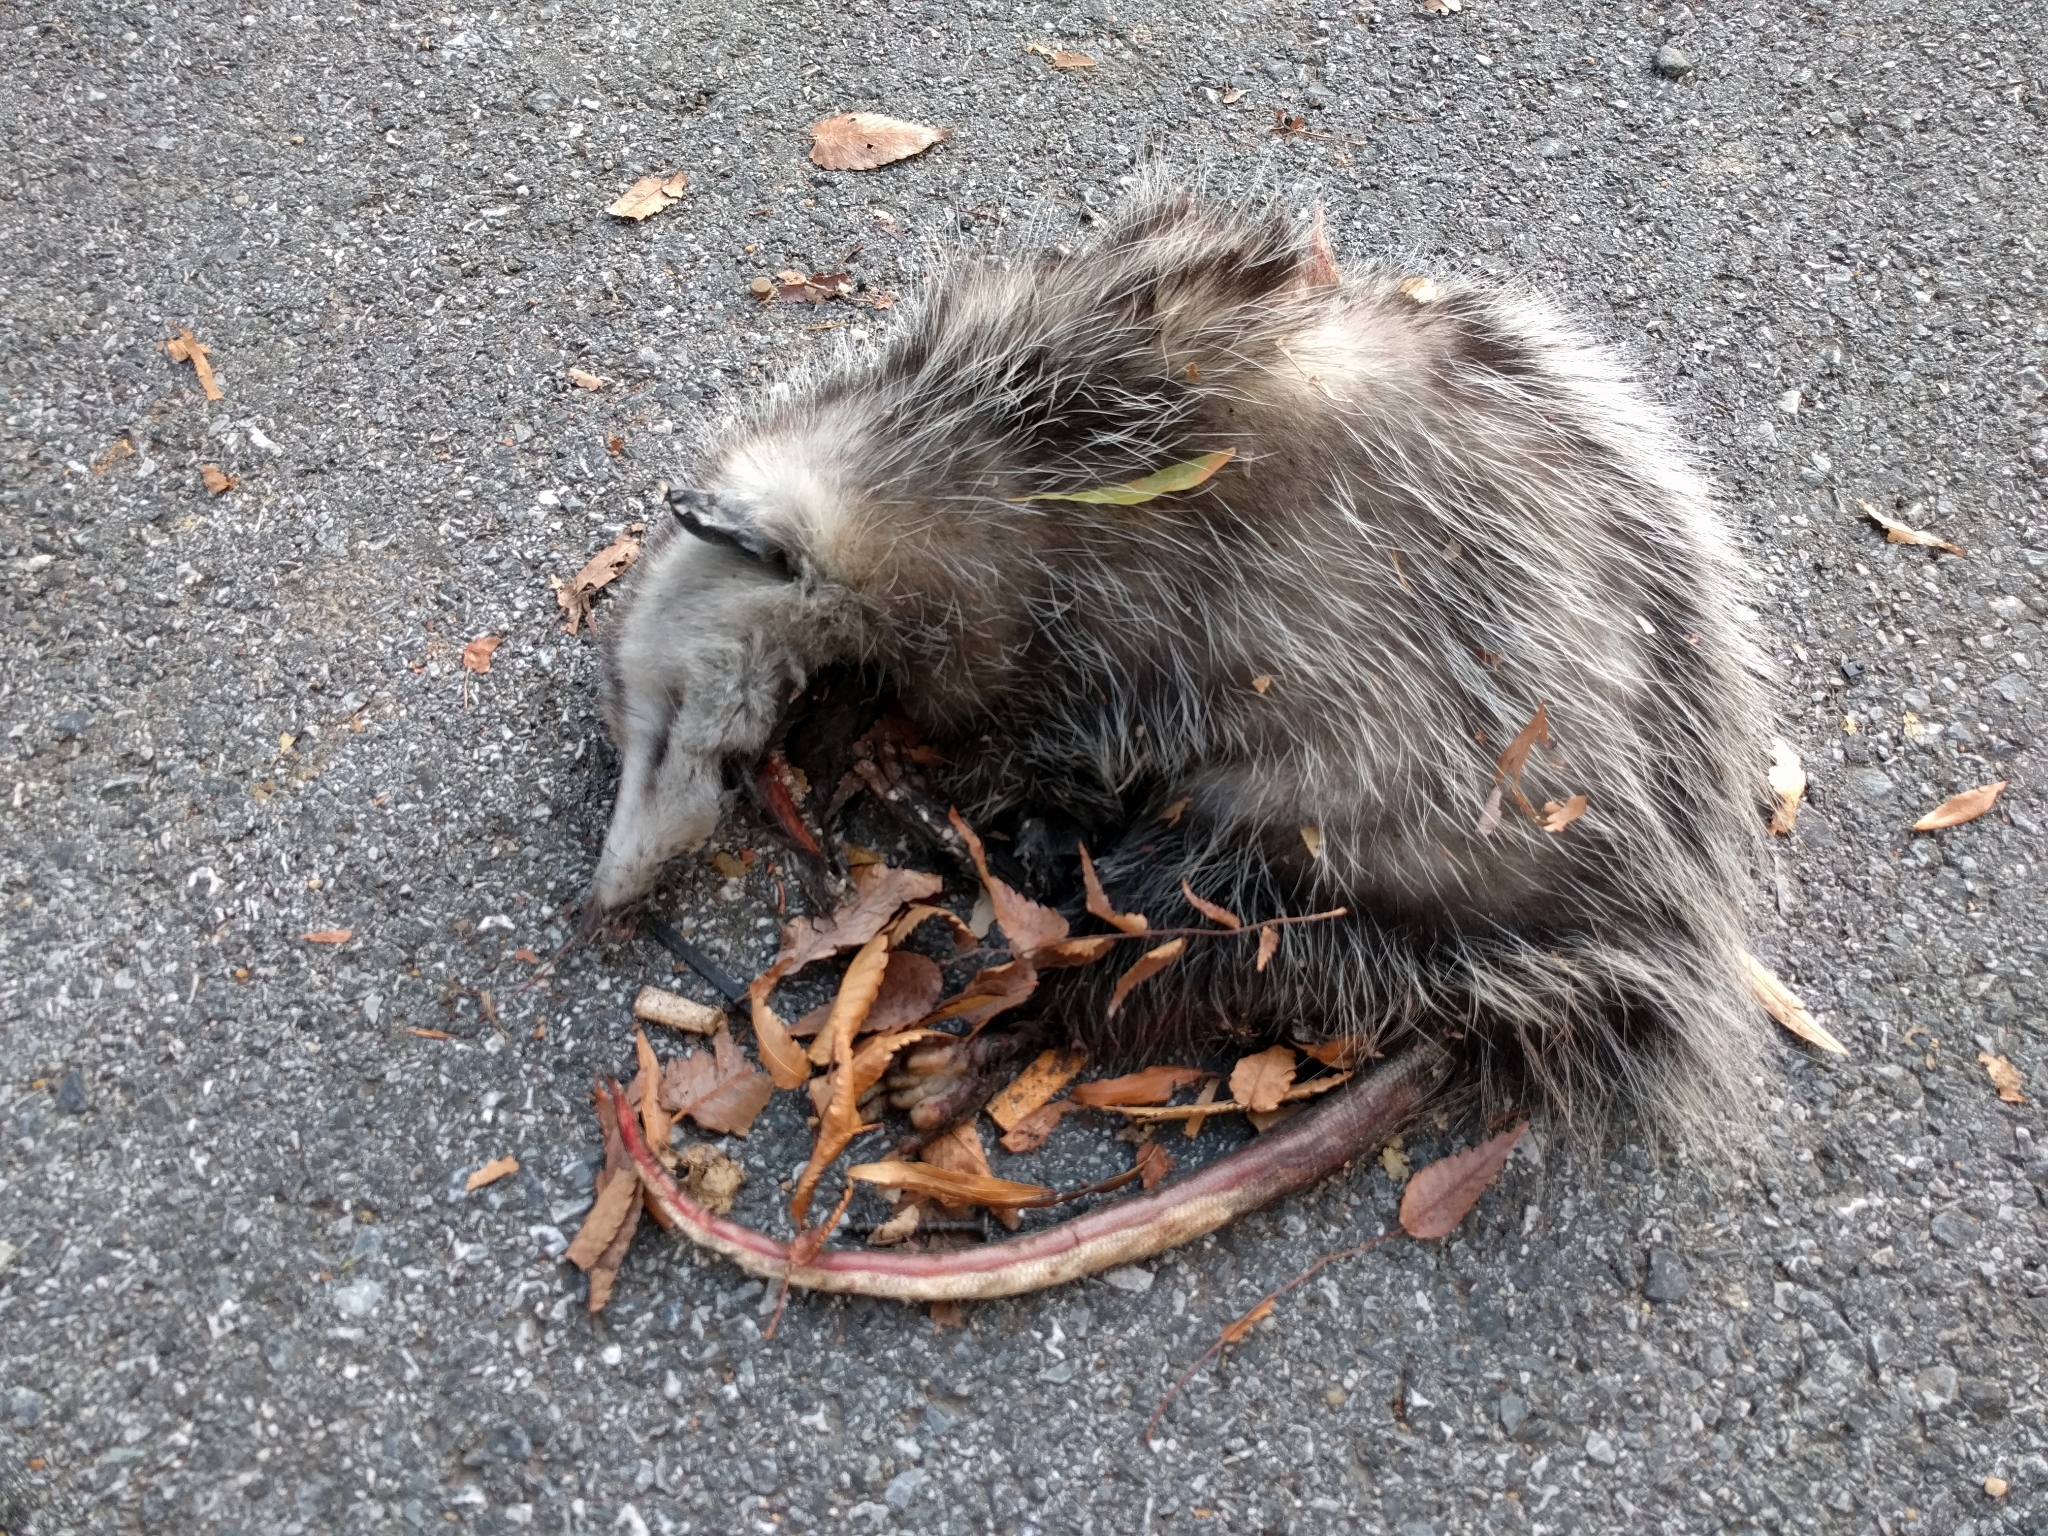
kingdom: Animalia
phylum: Chordata
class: Mammalia
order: Didelphimorphia
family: Didelphidae
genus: Didelphis
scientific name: Didelphis virginiana
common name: Virginia opossum
